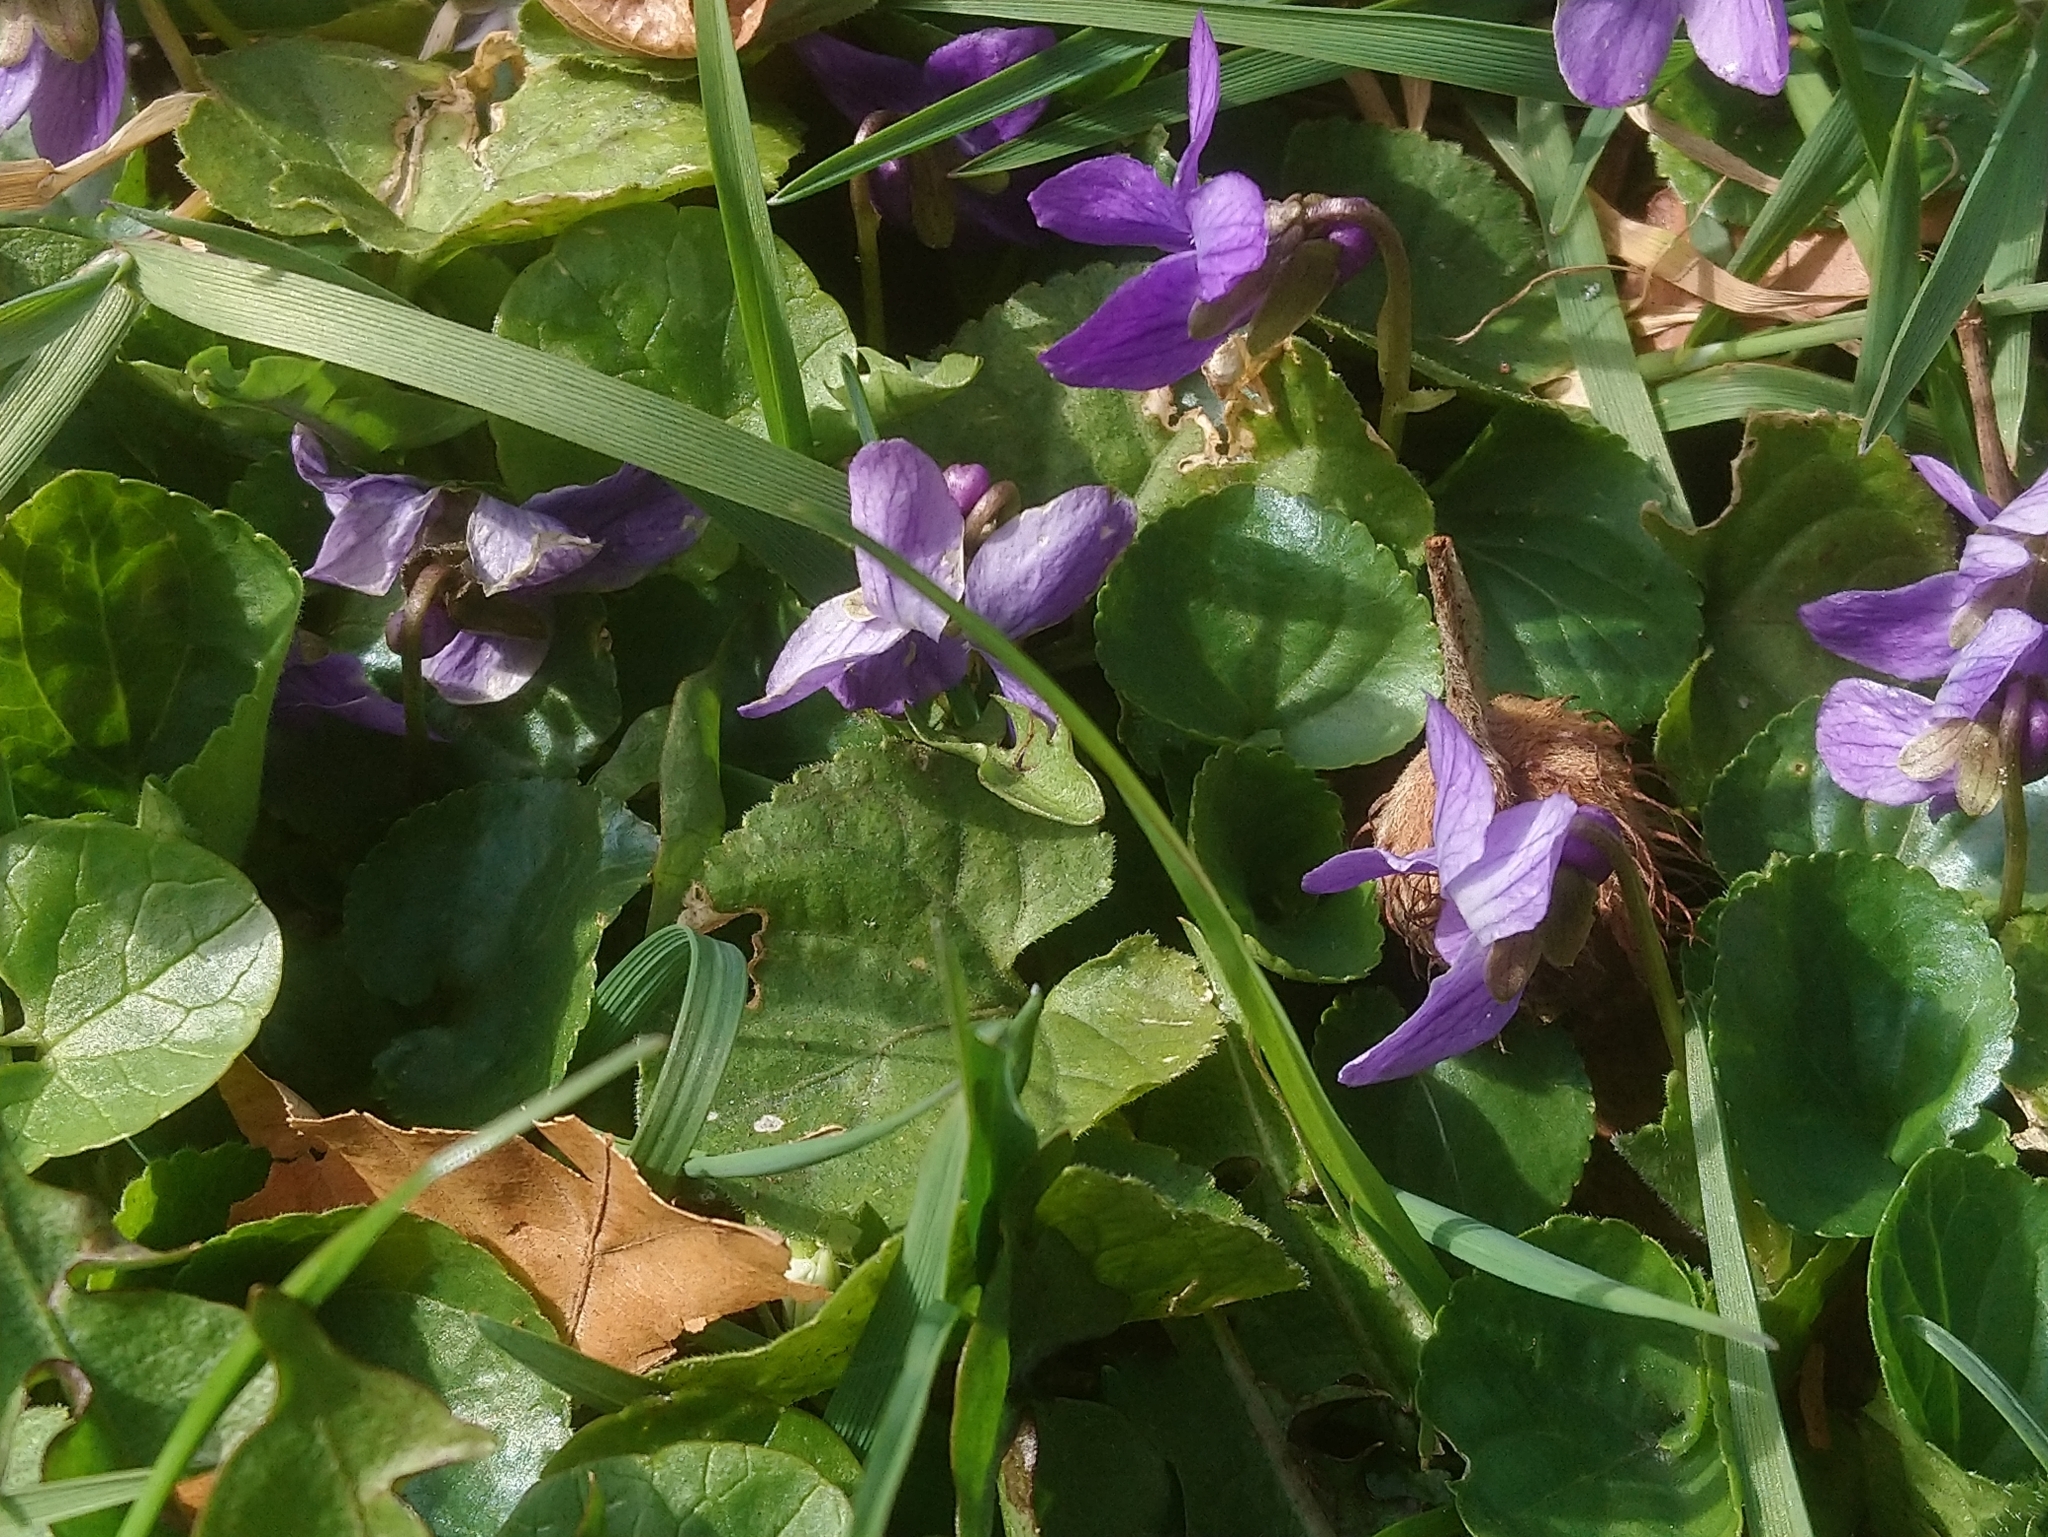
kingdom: Plantae
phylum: Tracheophyta
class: Magnoliopsida
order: Malpighiales
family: Violaceae
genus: Viola
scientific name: Viola odorata
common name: Sweet violet
